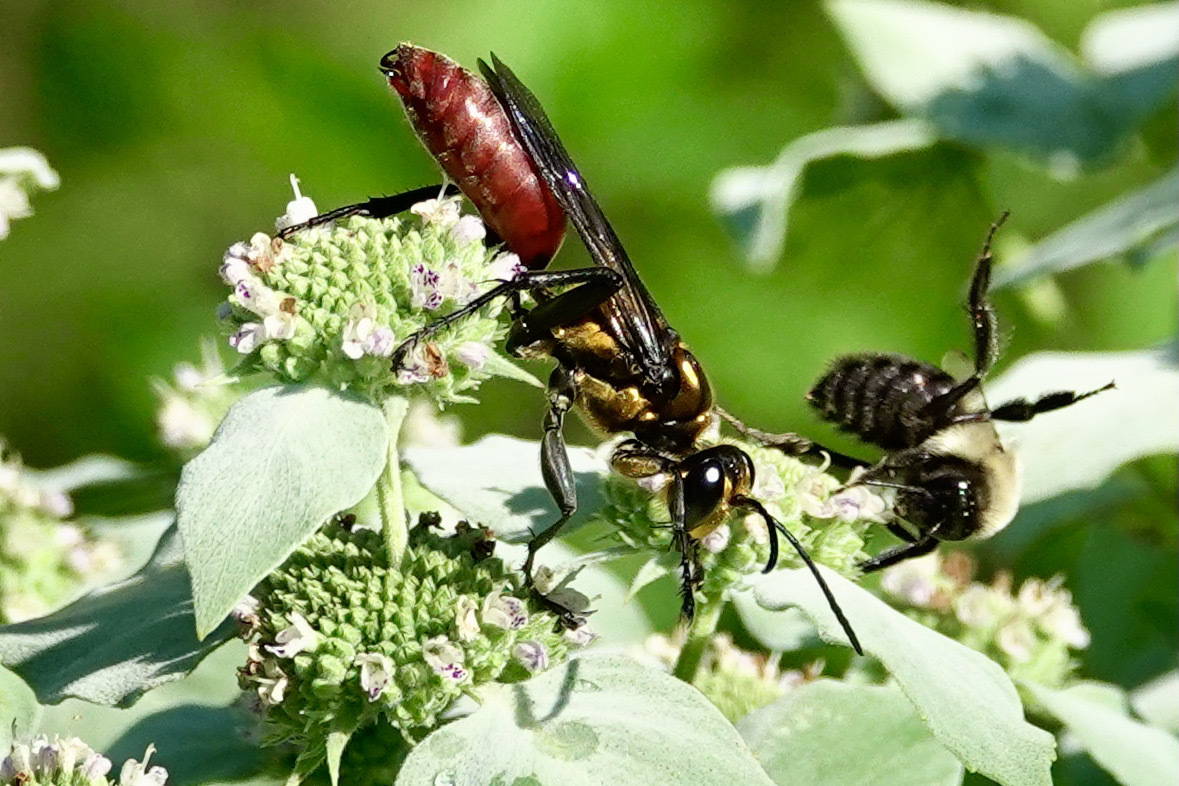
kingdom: Animalia
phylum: Arthropoda
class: Insecta
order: Hymenoptera
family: Sphecidae
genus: Sphex
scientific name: Sphex habenus
